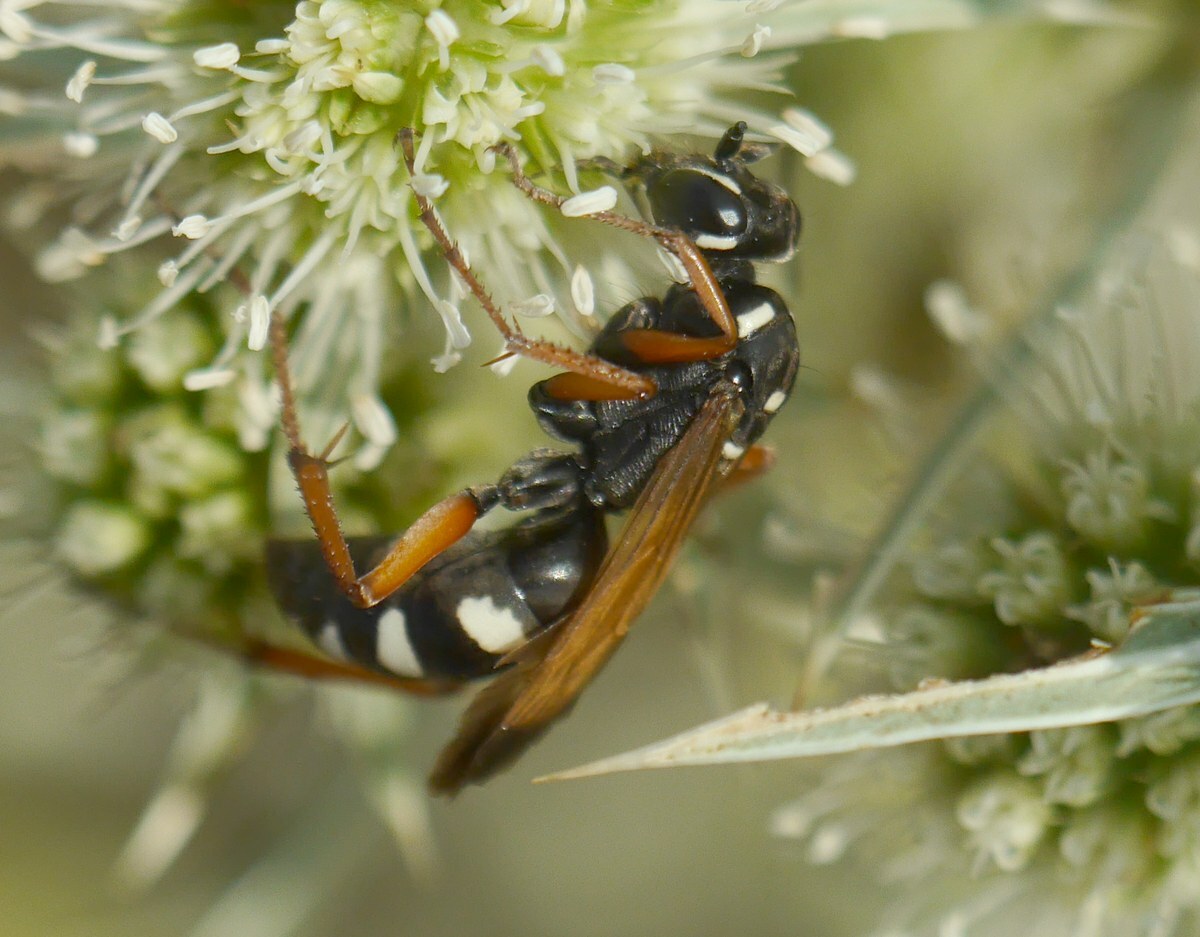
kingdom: Animalia
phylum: Arthropoda
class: Insecta
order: Hymenoptera
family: Pompilidae
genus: Cryptocheilus
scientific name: Cryptocheilus variabilis
